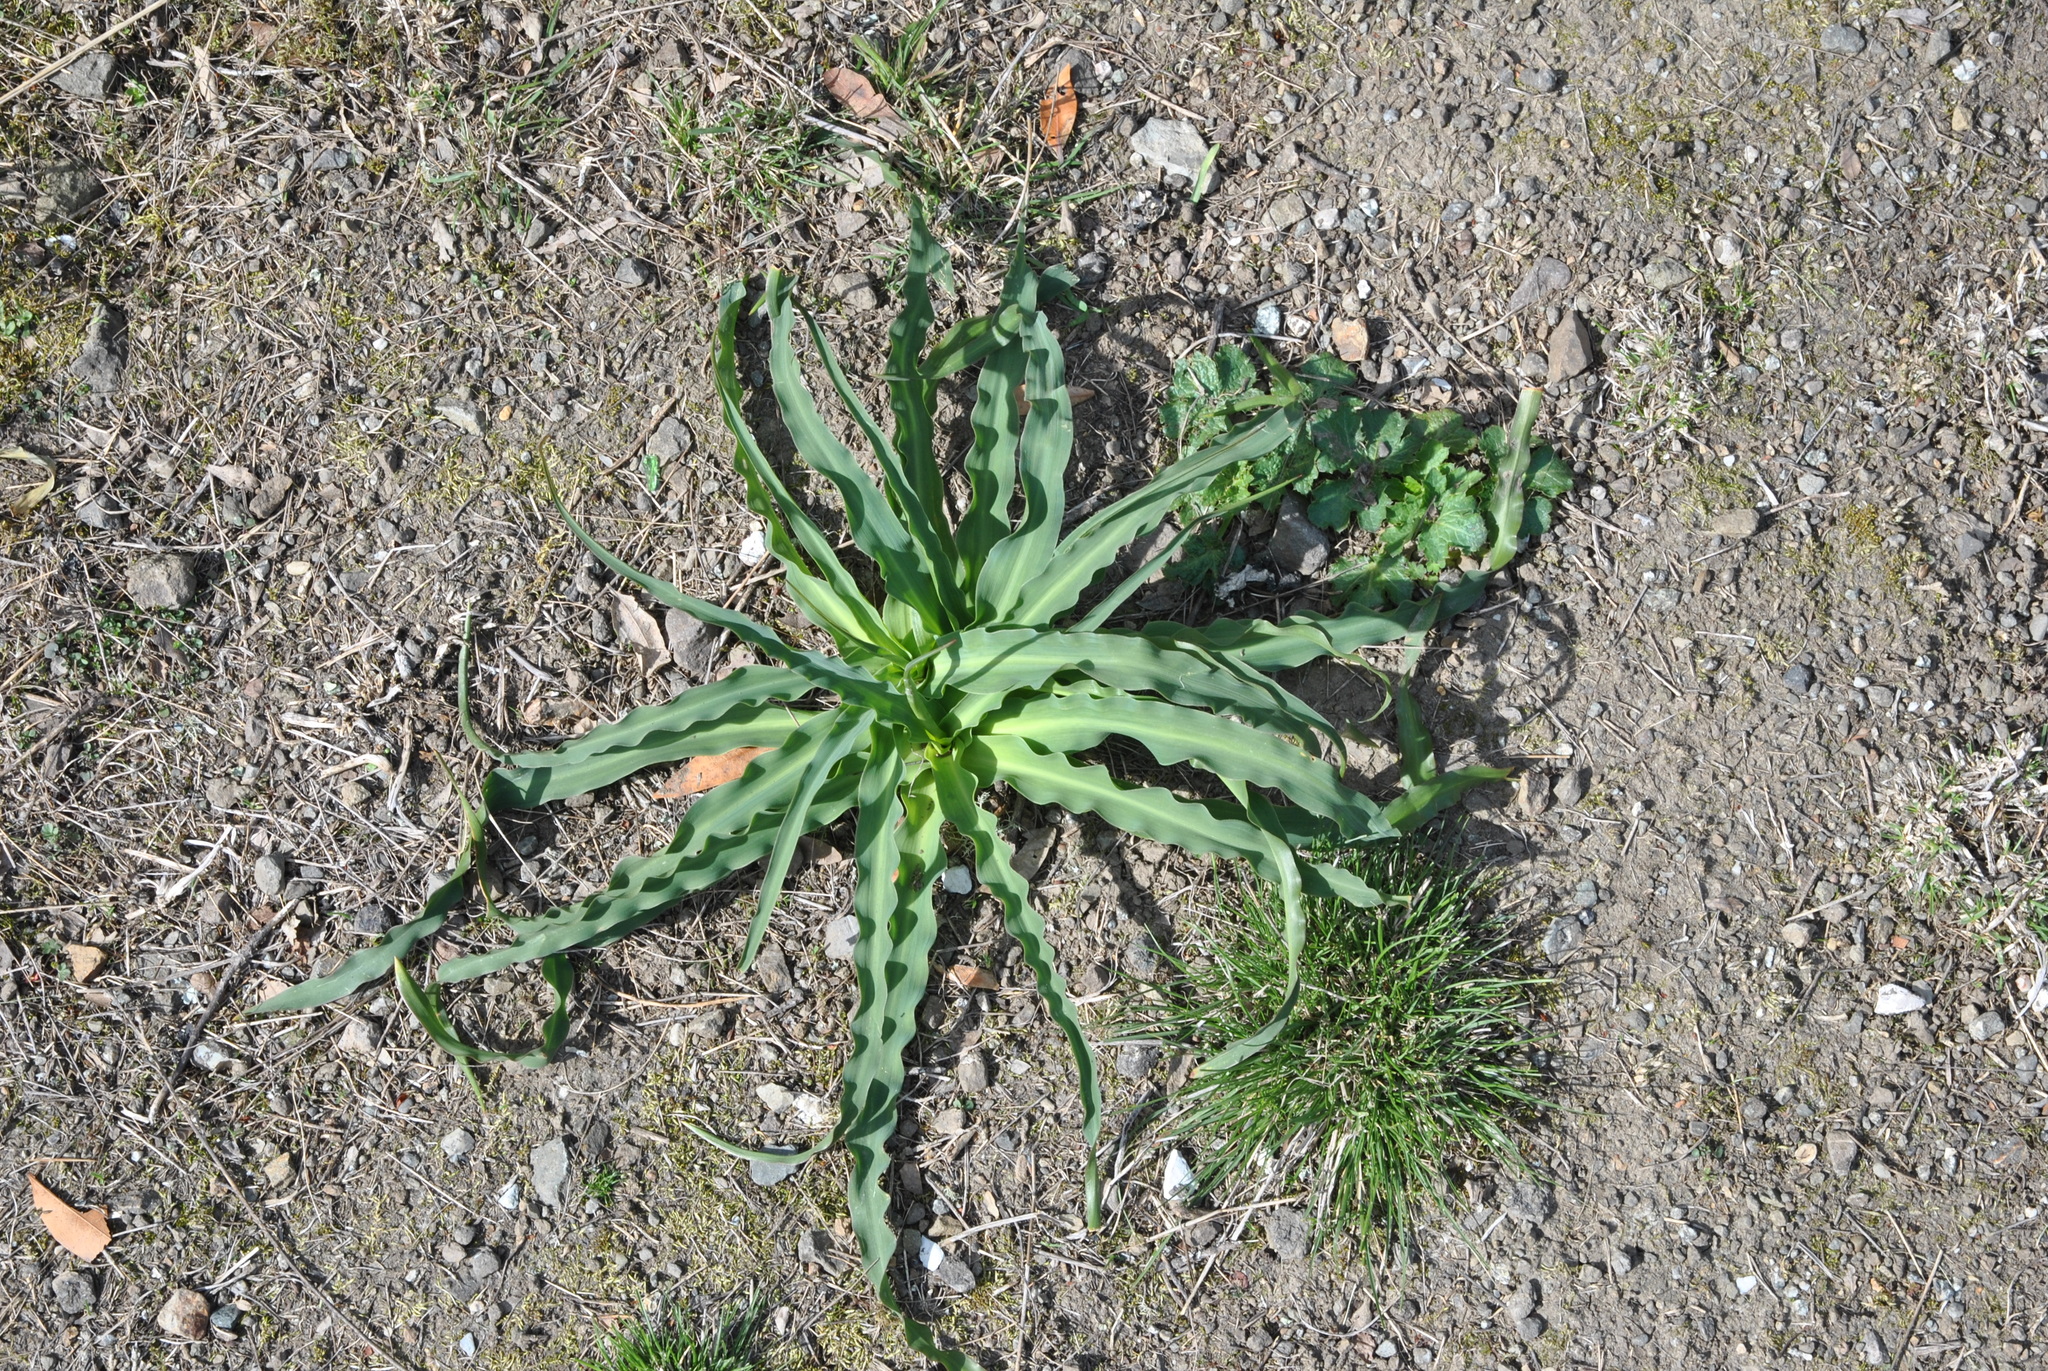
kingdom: Plantae
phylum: Tracheophyta
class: Liliopsida
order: Asparagales
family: Asparagaceae
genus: Chlorogalum
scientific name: Chlorogalum pomeridianum
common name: Amole
